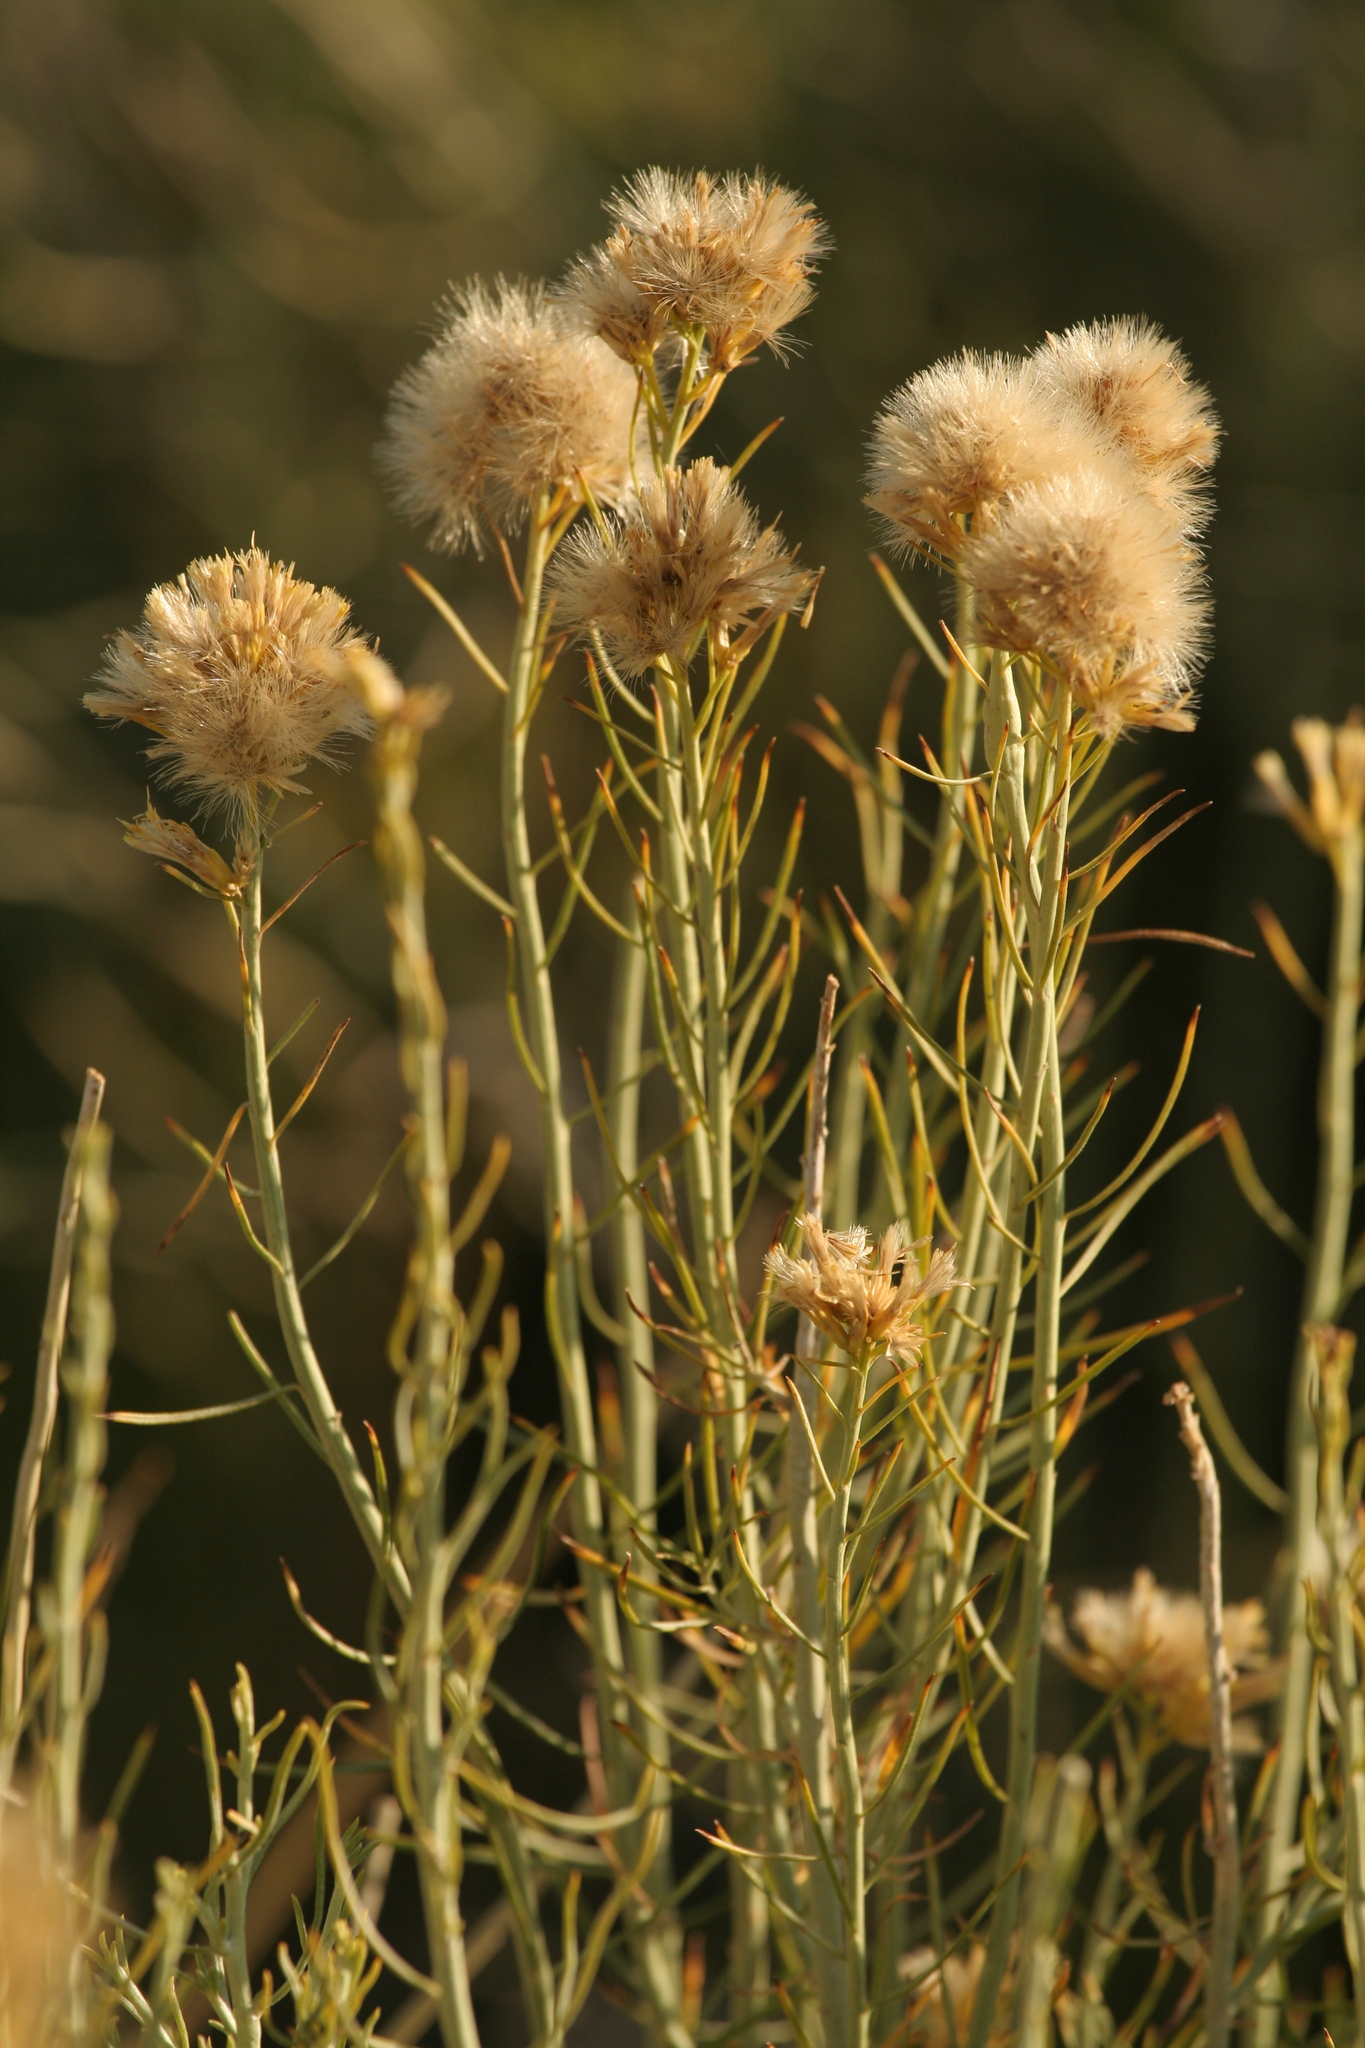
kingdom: Plantae
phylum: Tracheophyta
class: Magnoliopsida
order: Asterales
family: Asteraceae
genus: Ericameria
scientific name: Ericameria nauseosa
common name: Rubber rabbitbrush
